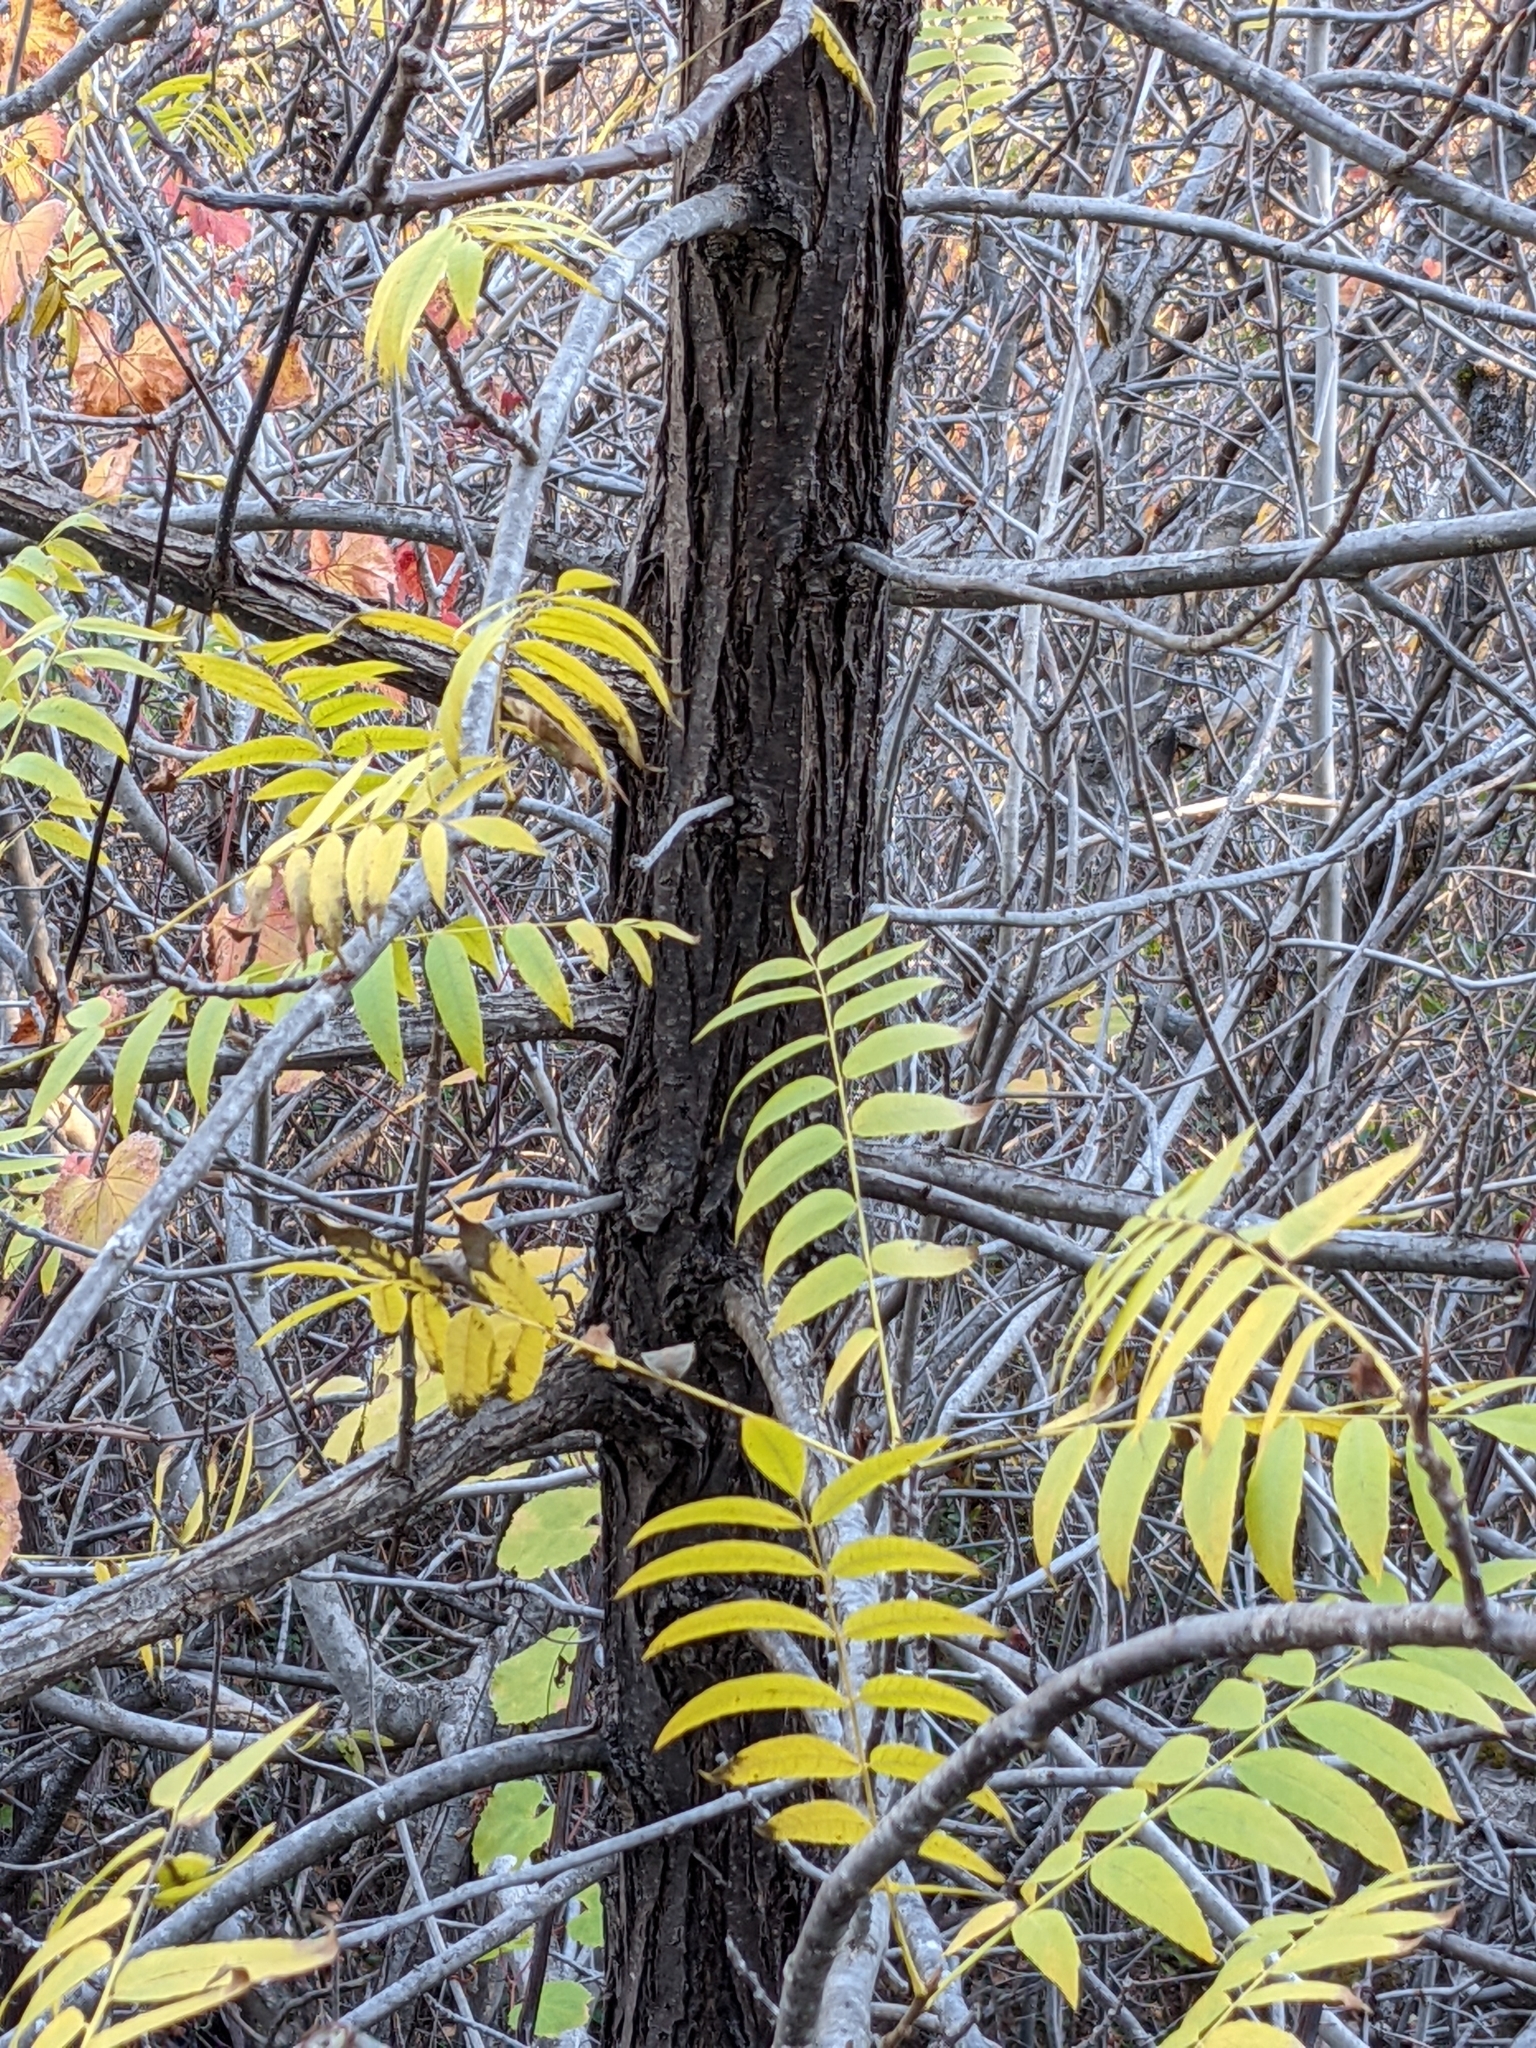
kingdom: Plantae
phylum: Tracheophyta
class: Magnoliopsida
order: Fagales
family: Juglandaceae
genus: Juglans
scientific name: Juglans hindsii
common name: Northern california black walnut
